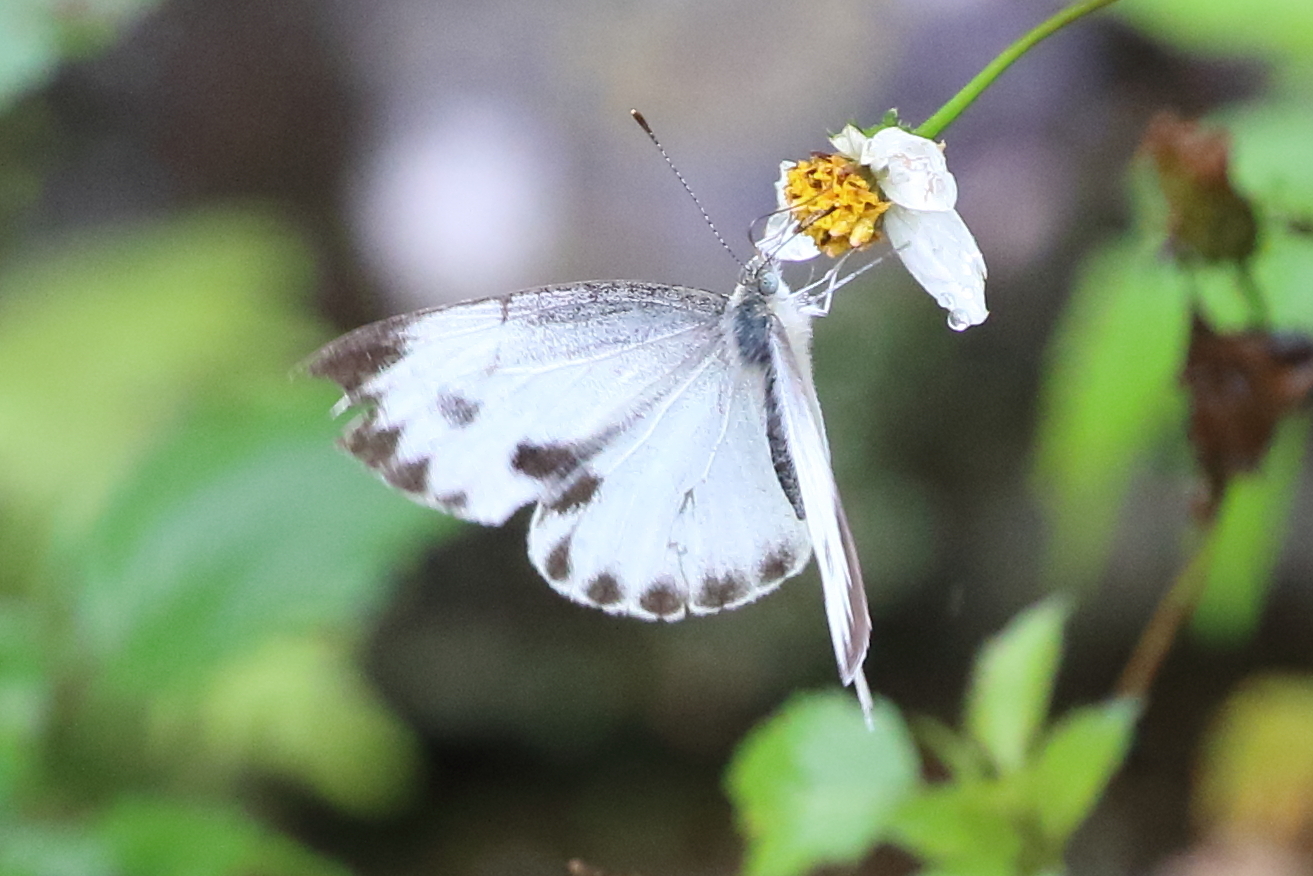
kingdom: Animalia
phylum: Arthropoda
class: Insecta
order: Lepidoptera
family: Pieridae
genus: Pieris
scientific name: Pieris canidia
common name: Indian cabbage white
